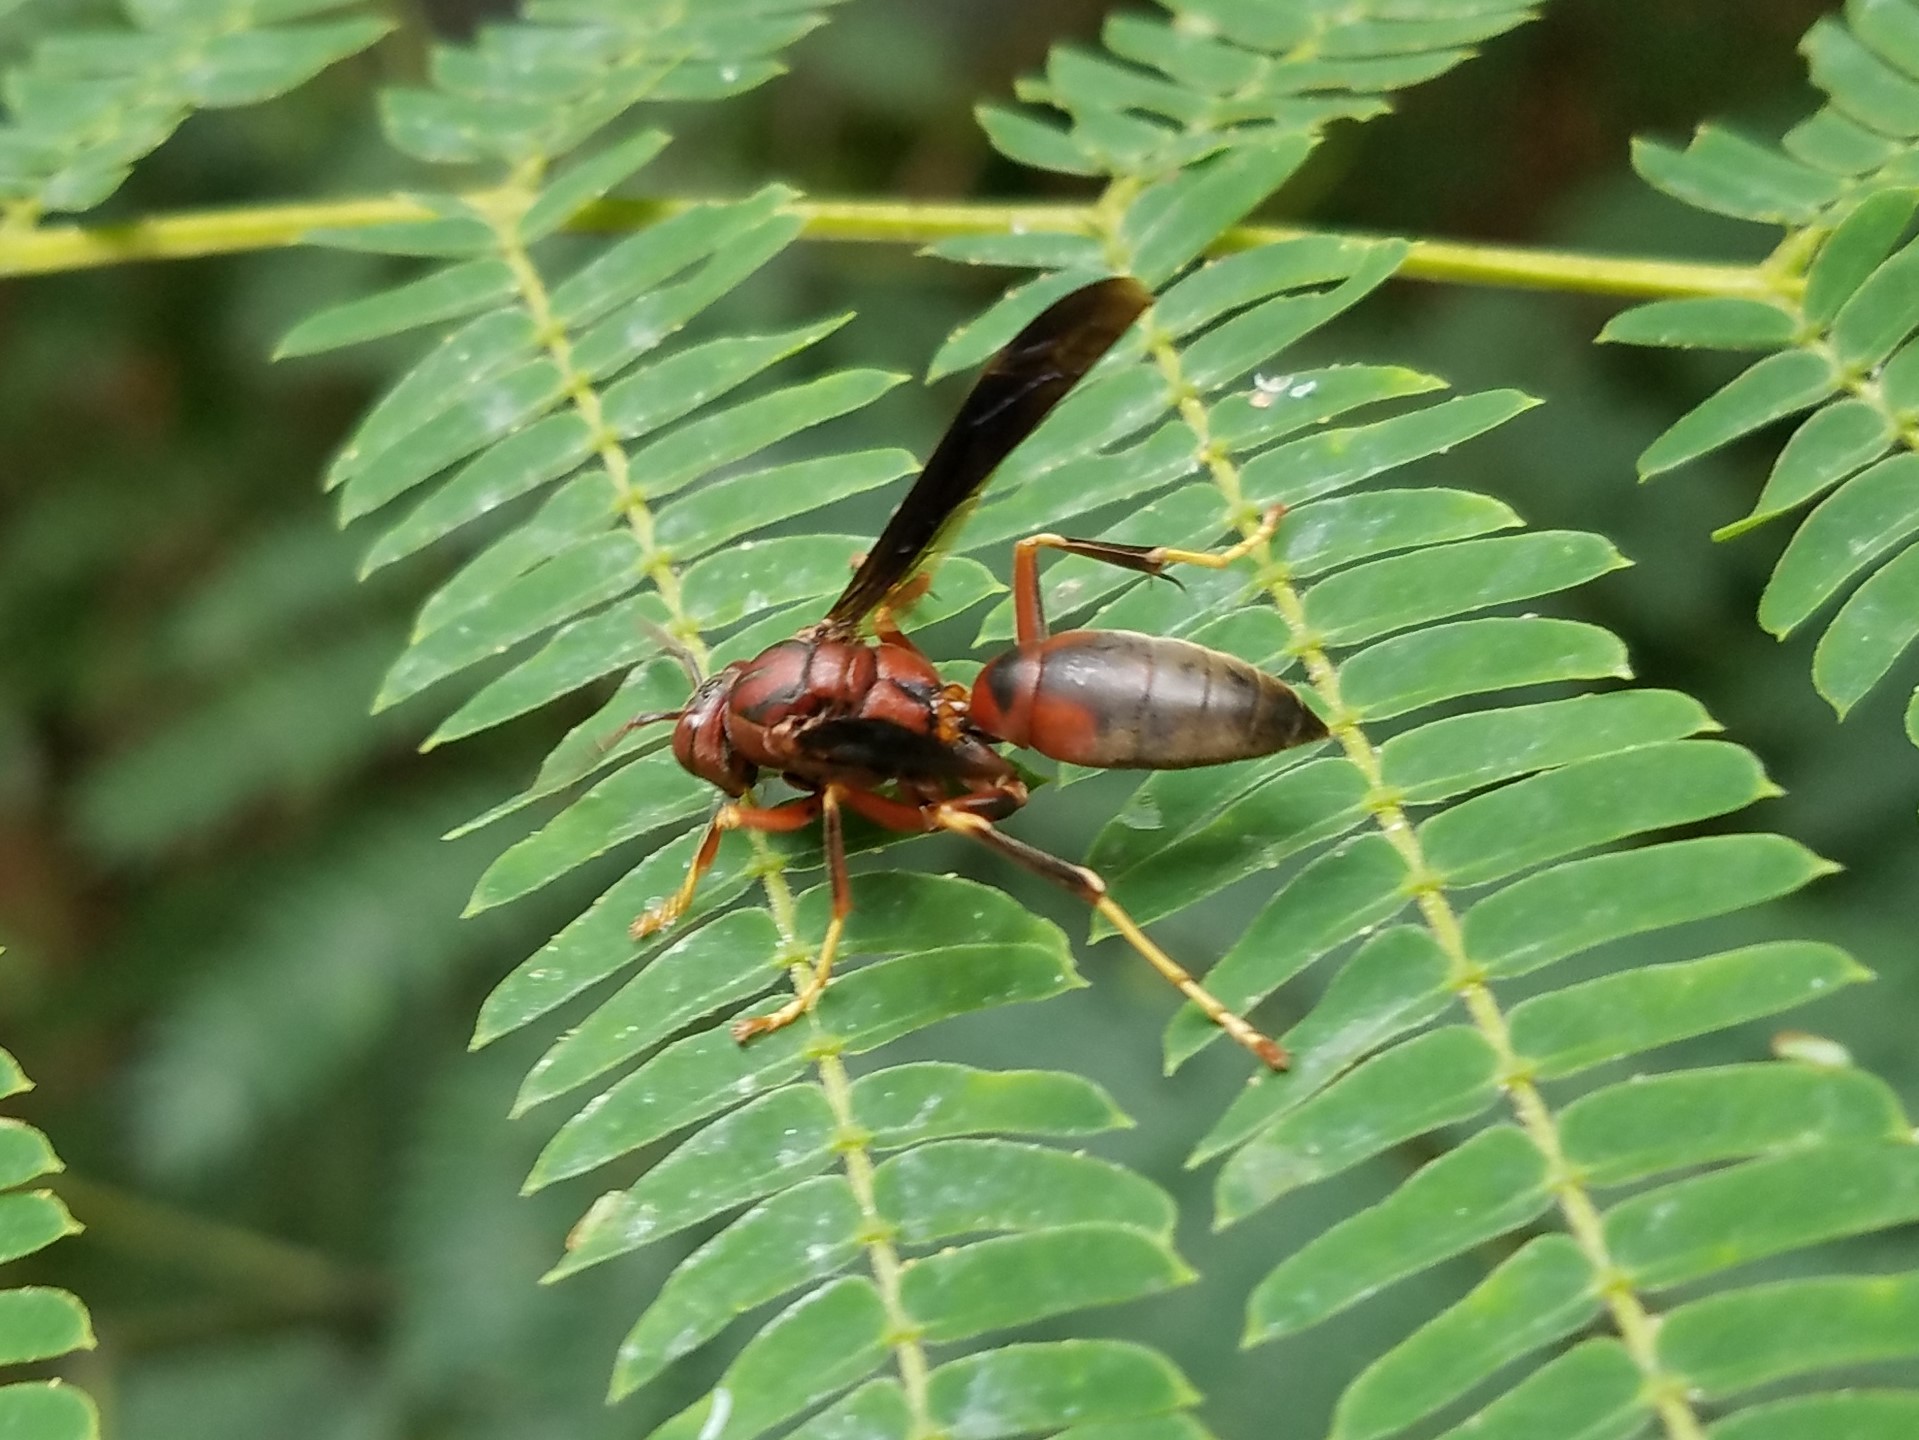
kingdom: Animalia
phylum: Arthropoda
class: Insecta
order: Hymenoptera
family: Eumenidae
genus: Polistes
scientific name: Polistes metricus
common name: Metric paper wasp
